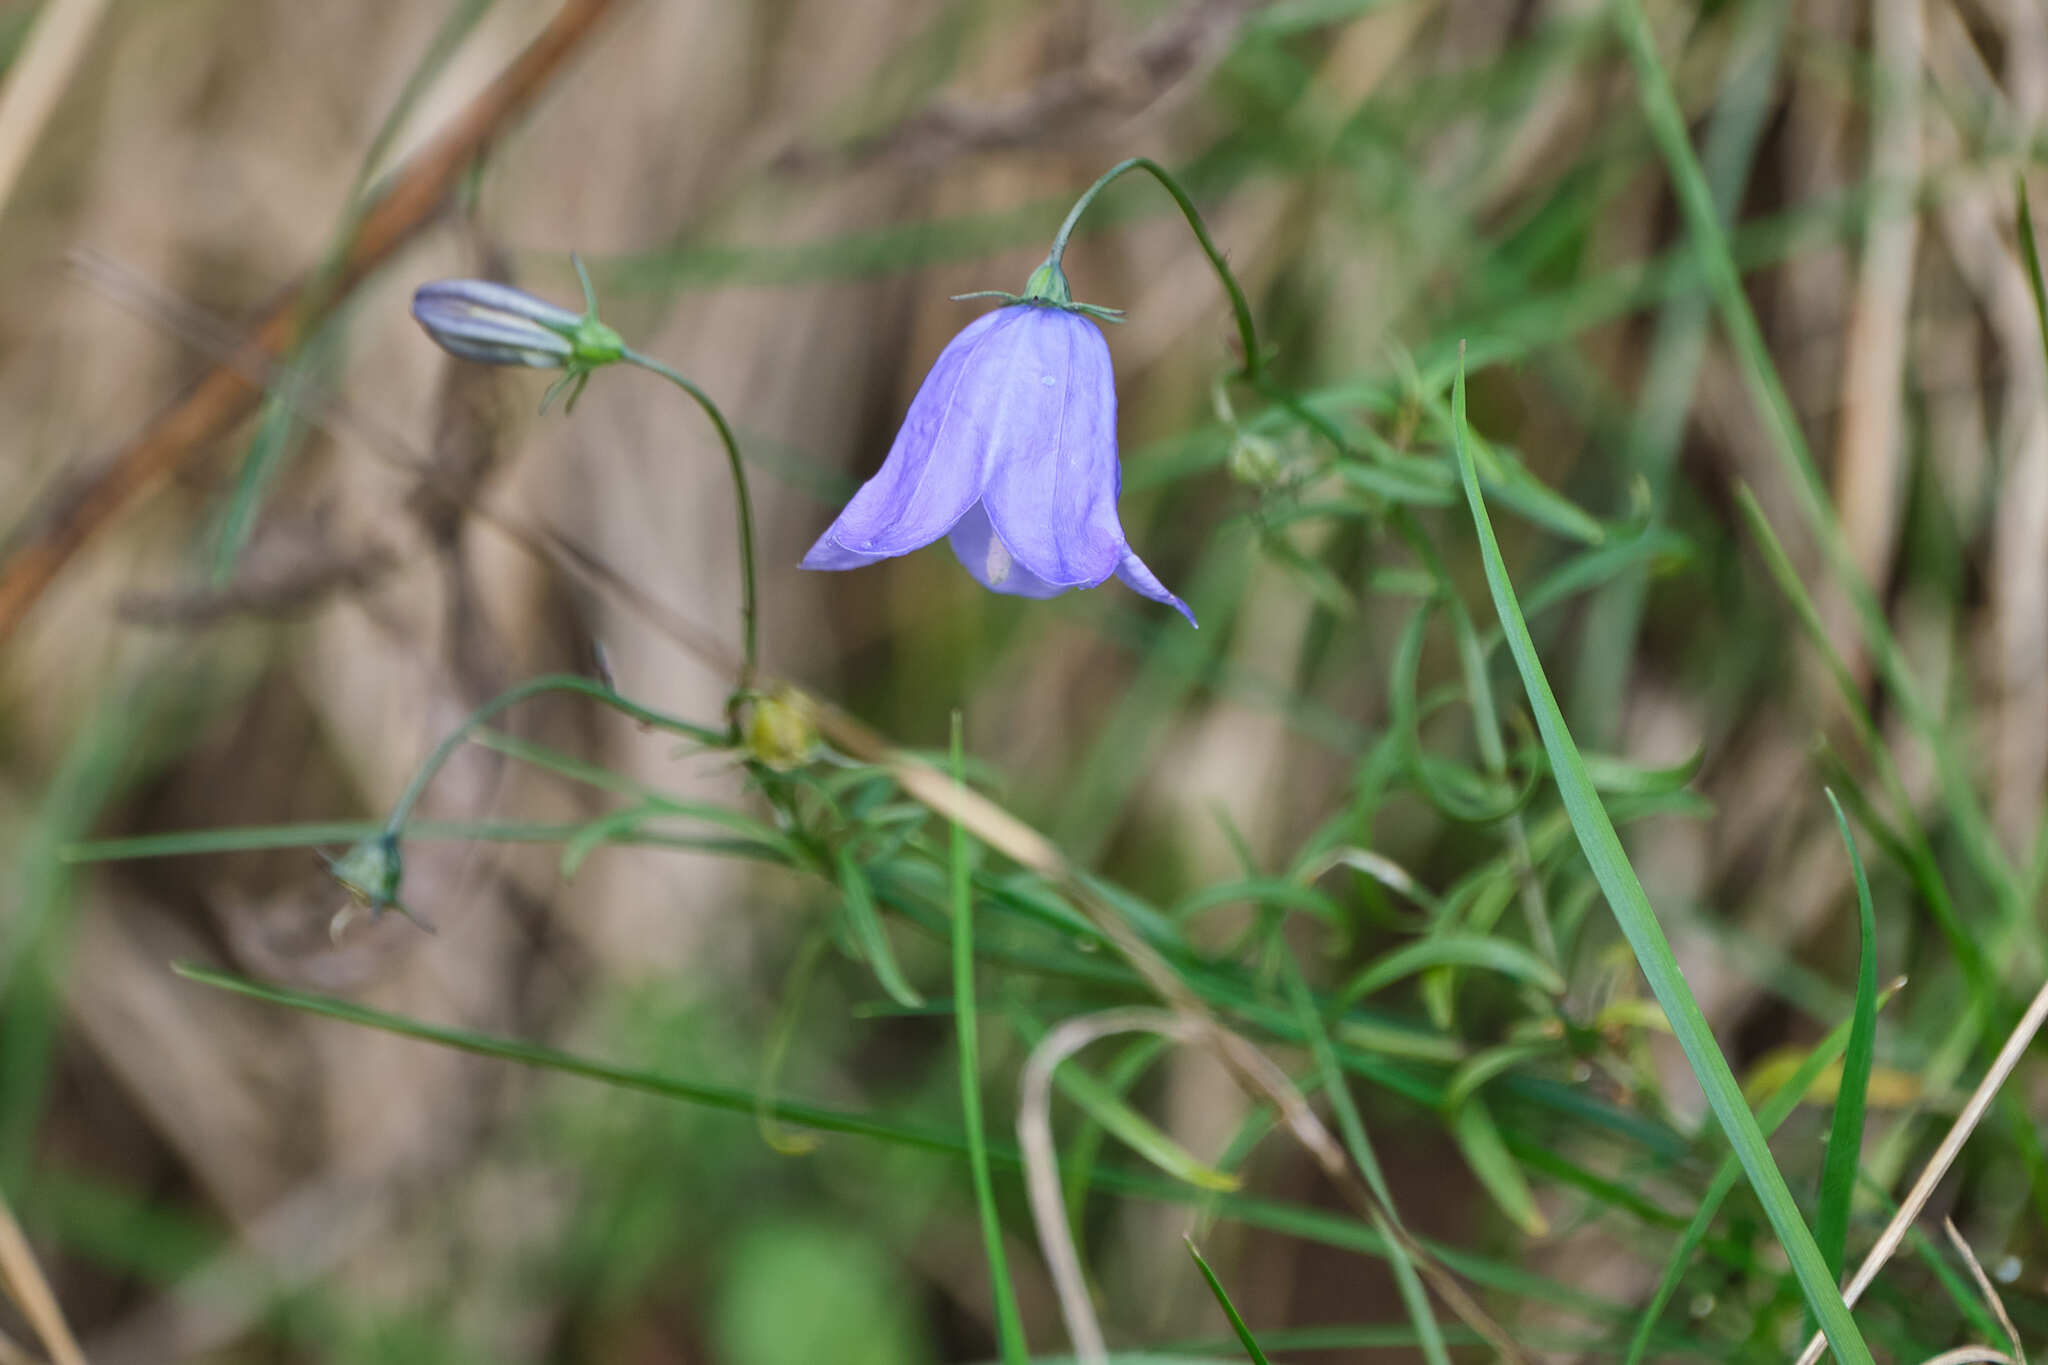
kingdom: Plantae
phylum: Tracheophyta
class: Magnoliopsida
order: Asterales
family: Campanulaceae
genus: Campanula
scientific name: Campanula rotundifolia
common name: Harebell
